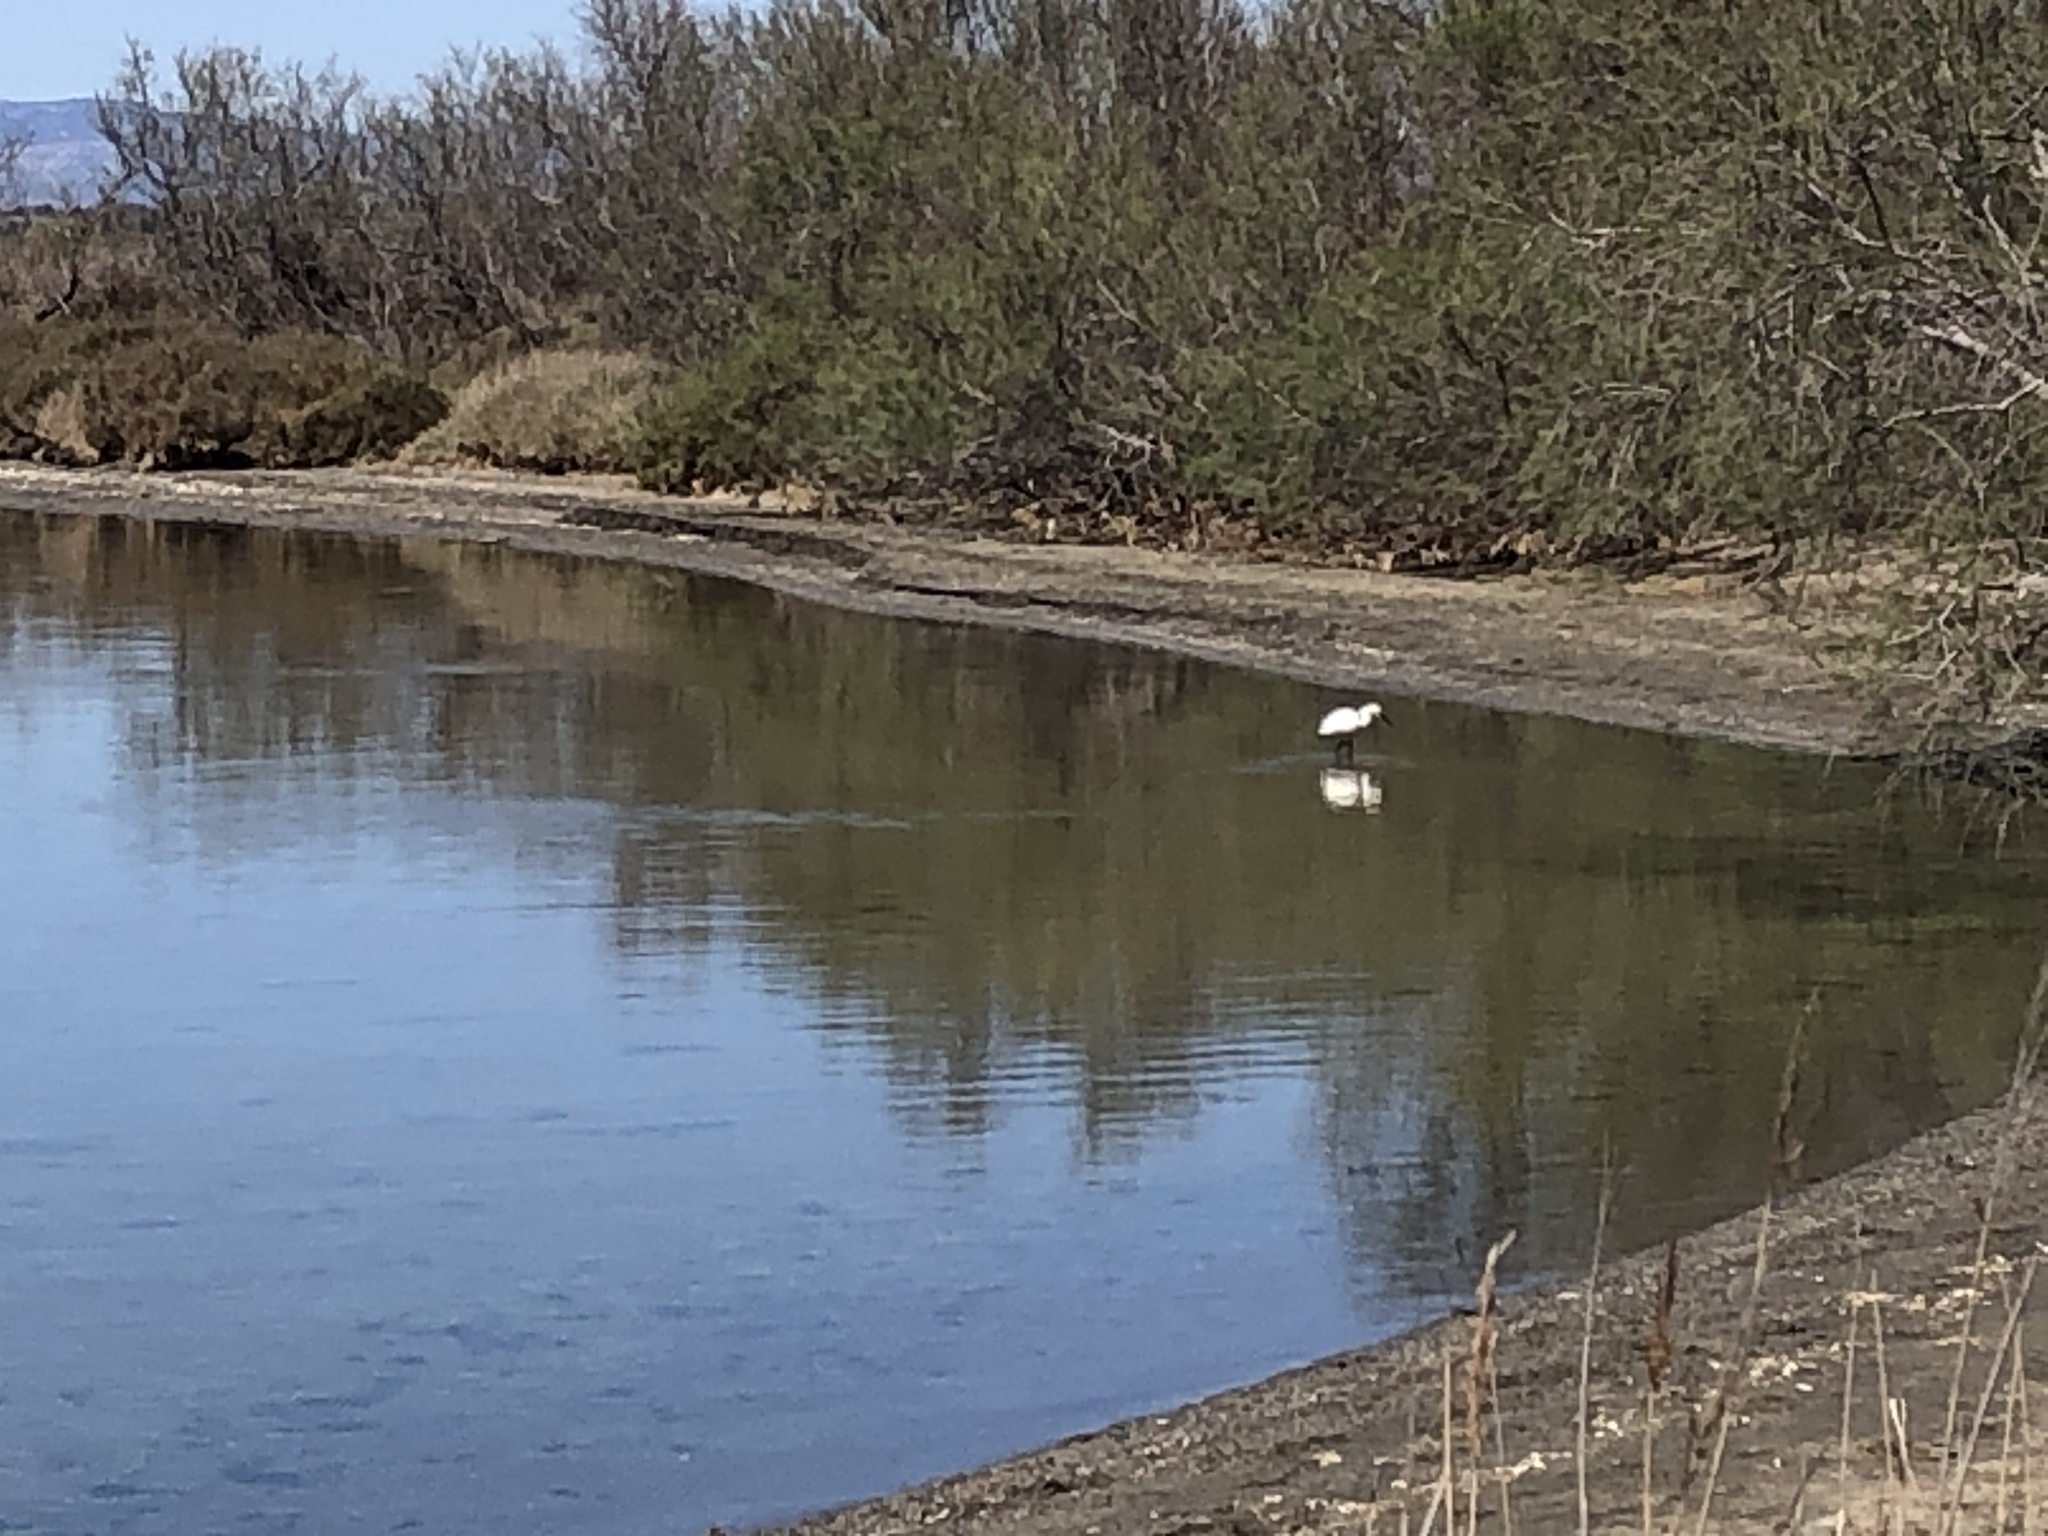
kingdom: Animalia
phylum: Chordata
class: Aves
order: Pelecaniformes
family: Ardeidae
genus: Egretta
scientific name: Egretta garzetta
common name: Little egret
